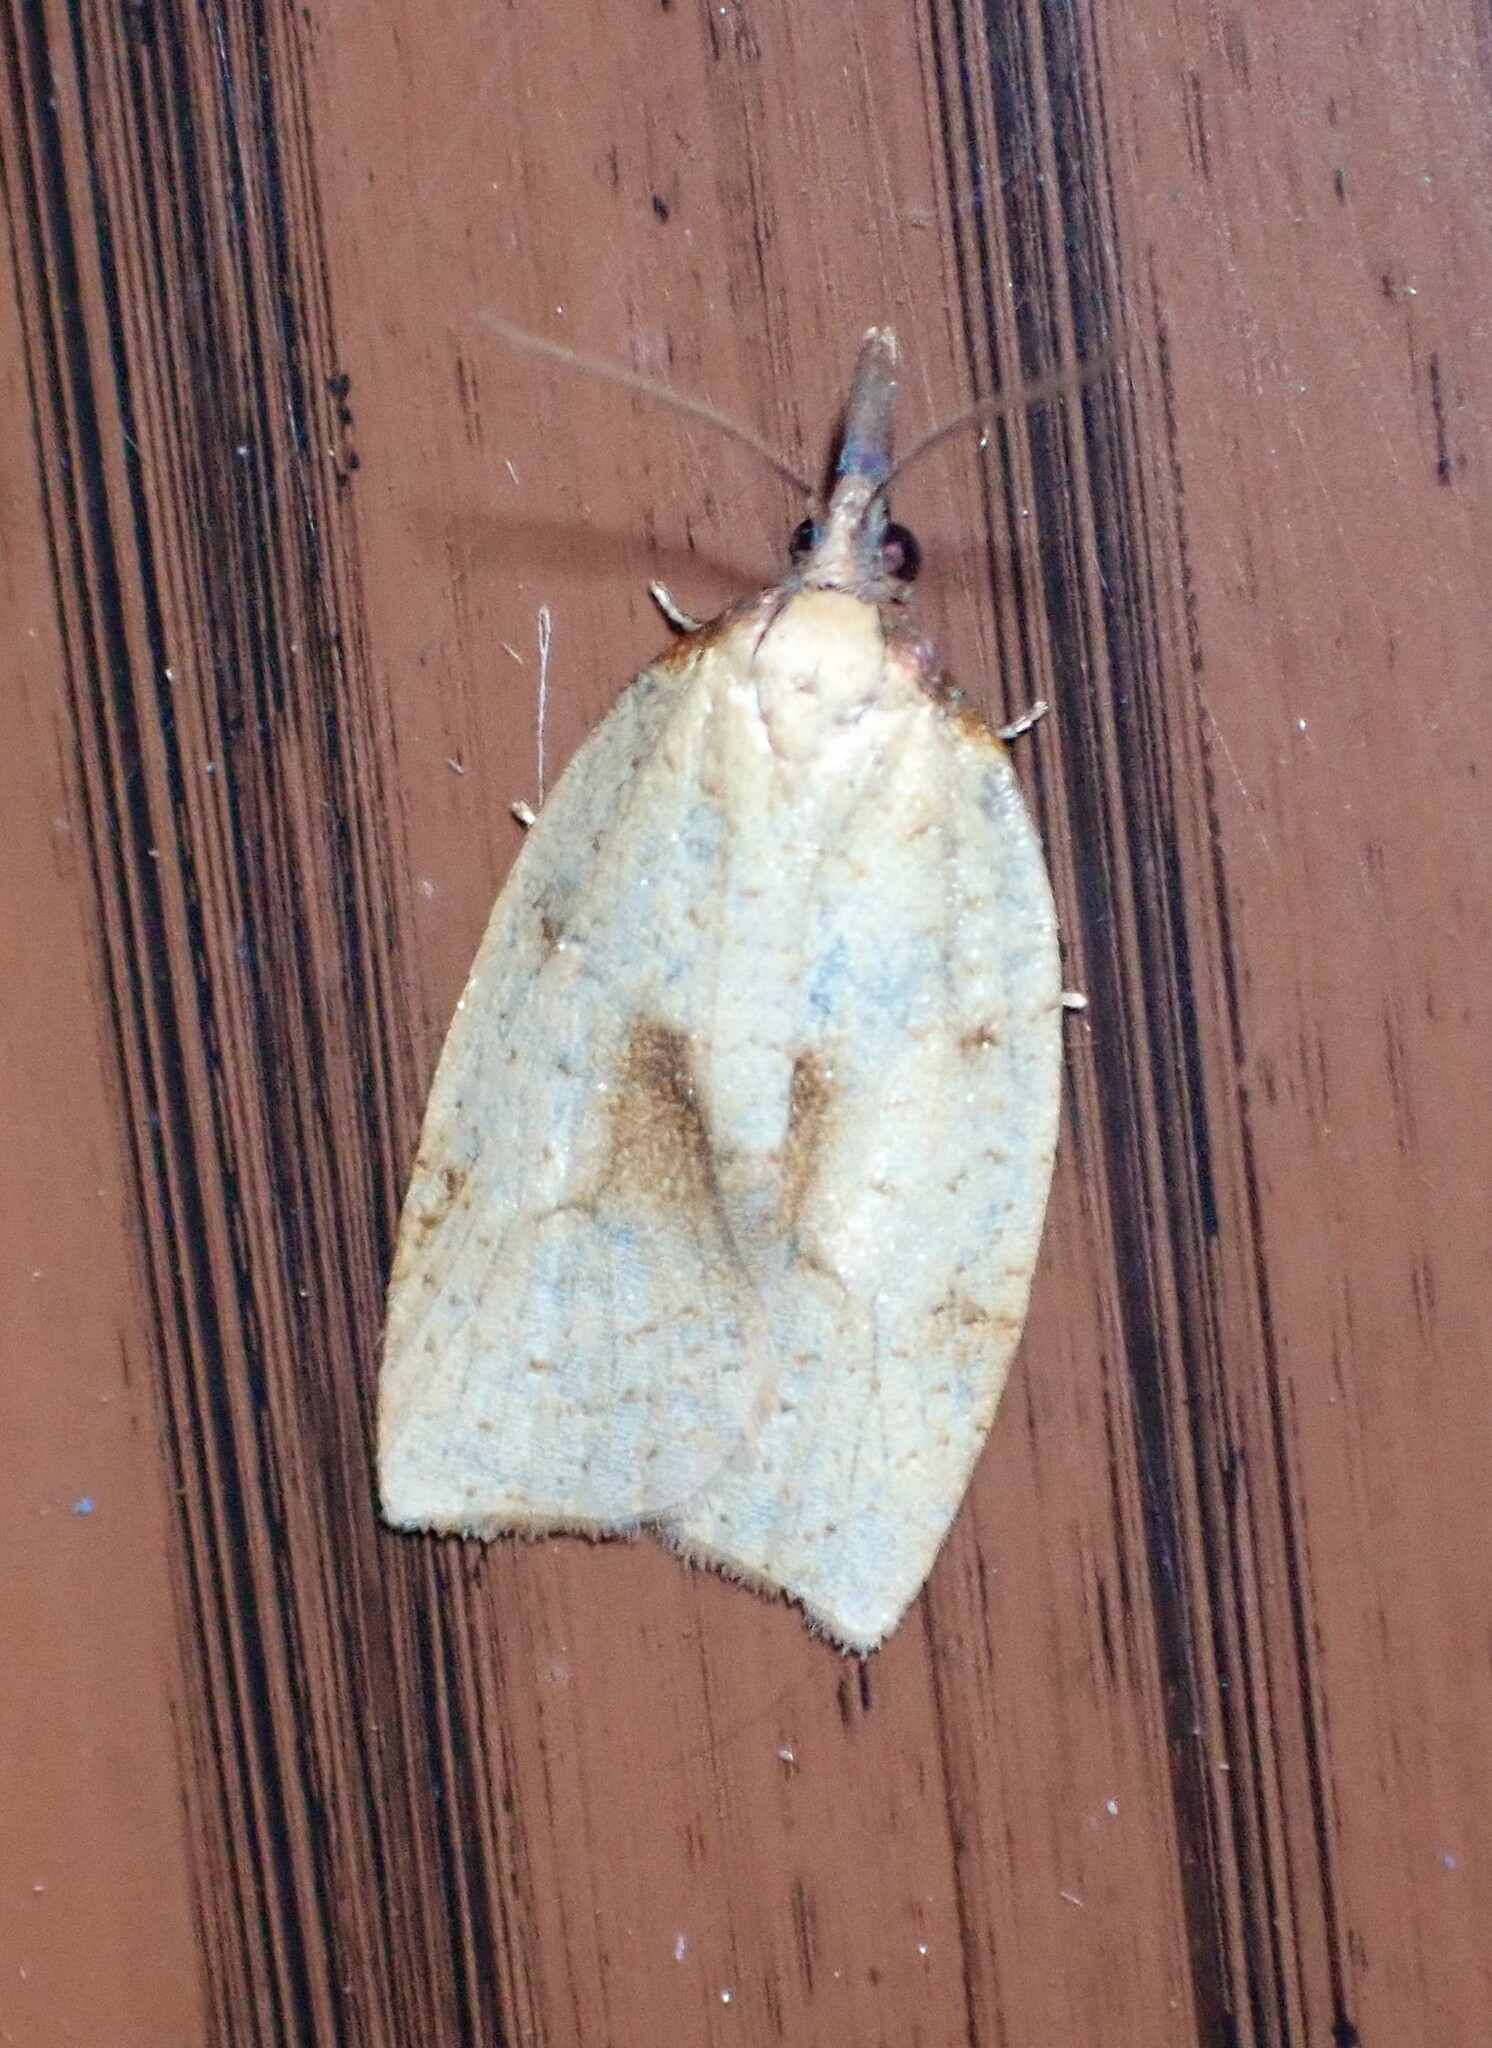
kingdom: Animalia
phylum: Arthropoda
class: Insecta
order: Lepidoptera
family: Tortricidae
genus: Sparganothis
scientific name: Sparganothis xanthoides
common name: Mosaic sparganothis moth
